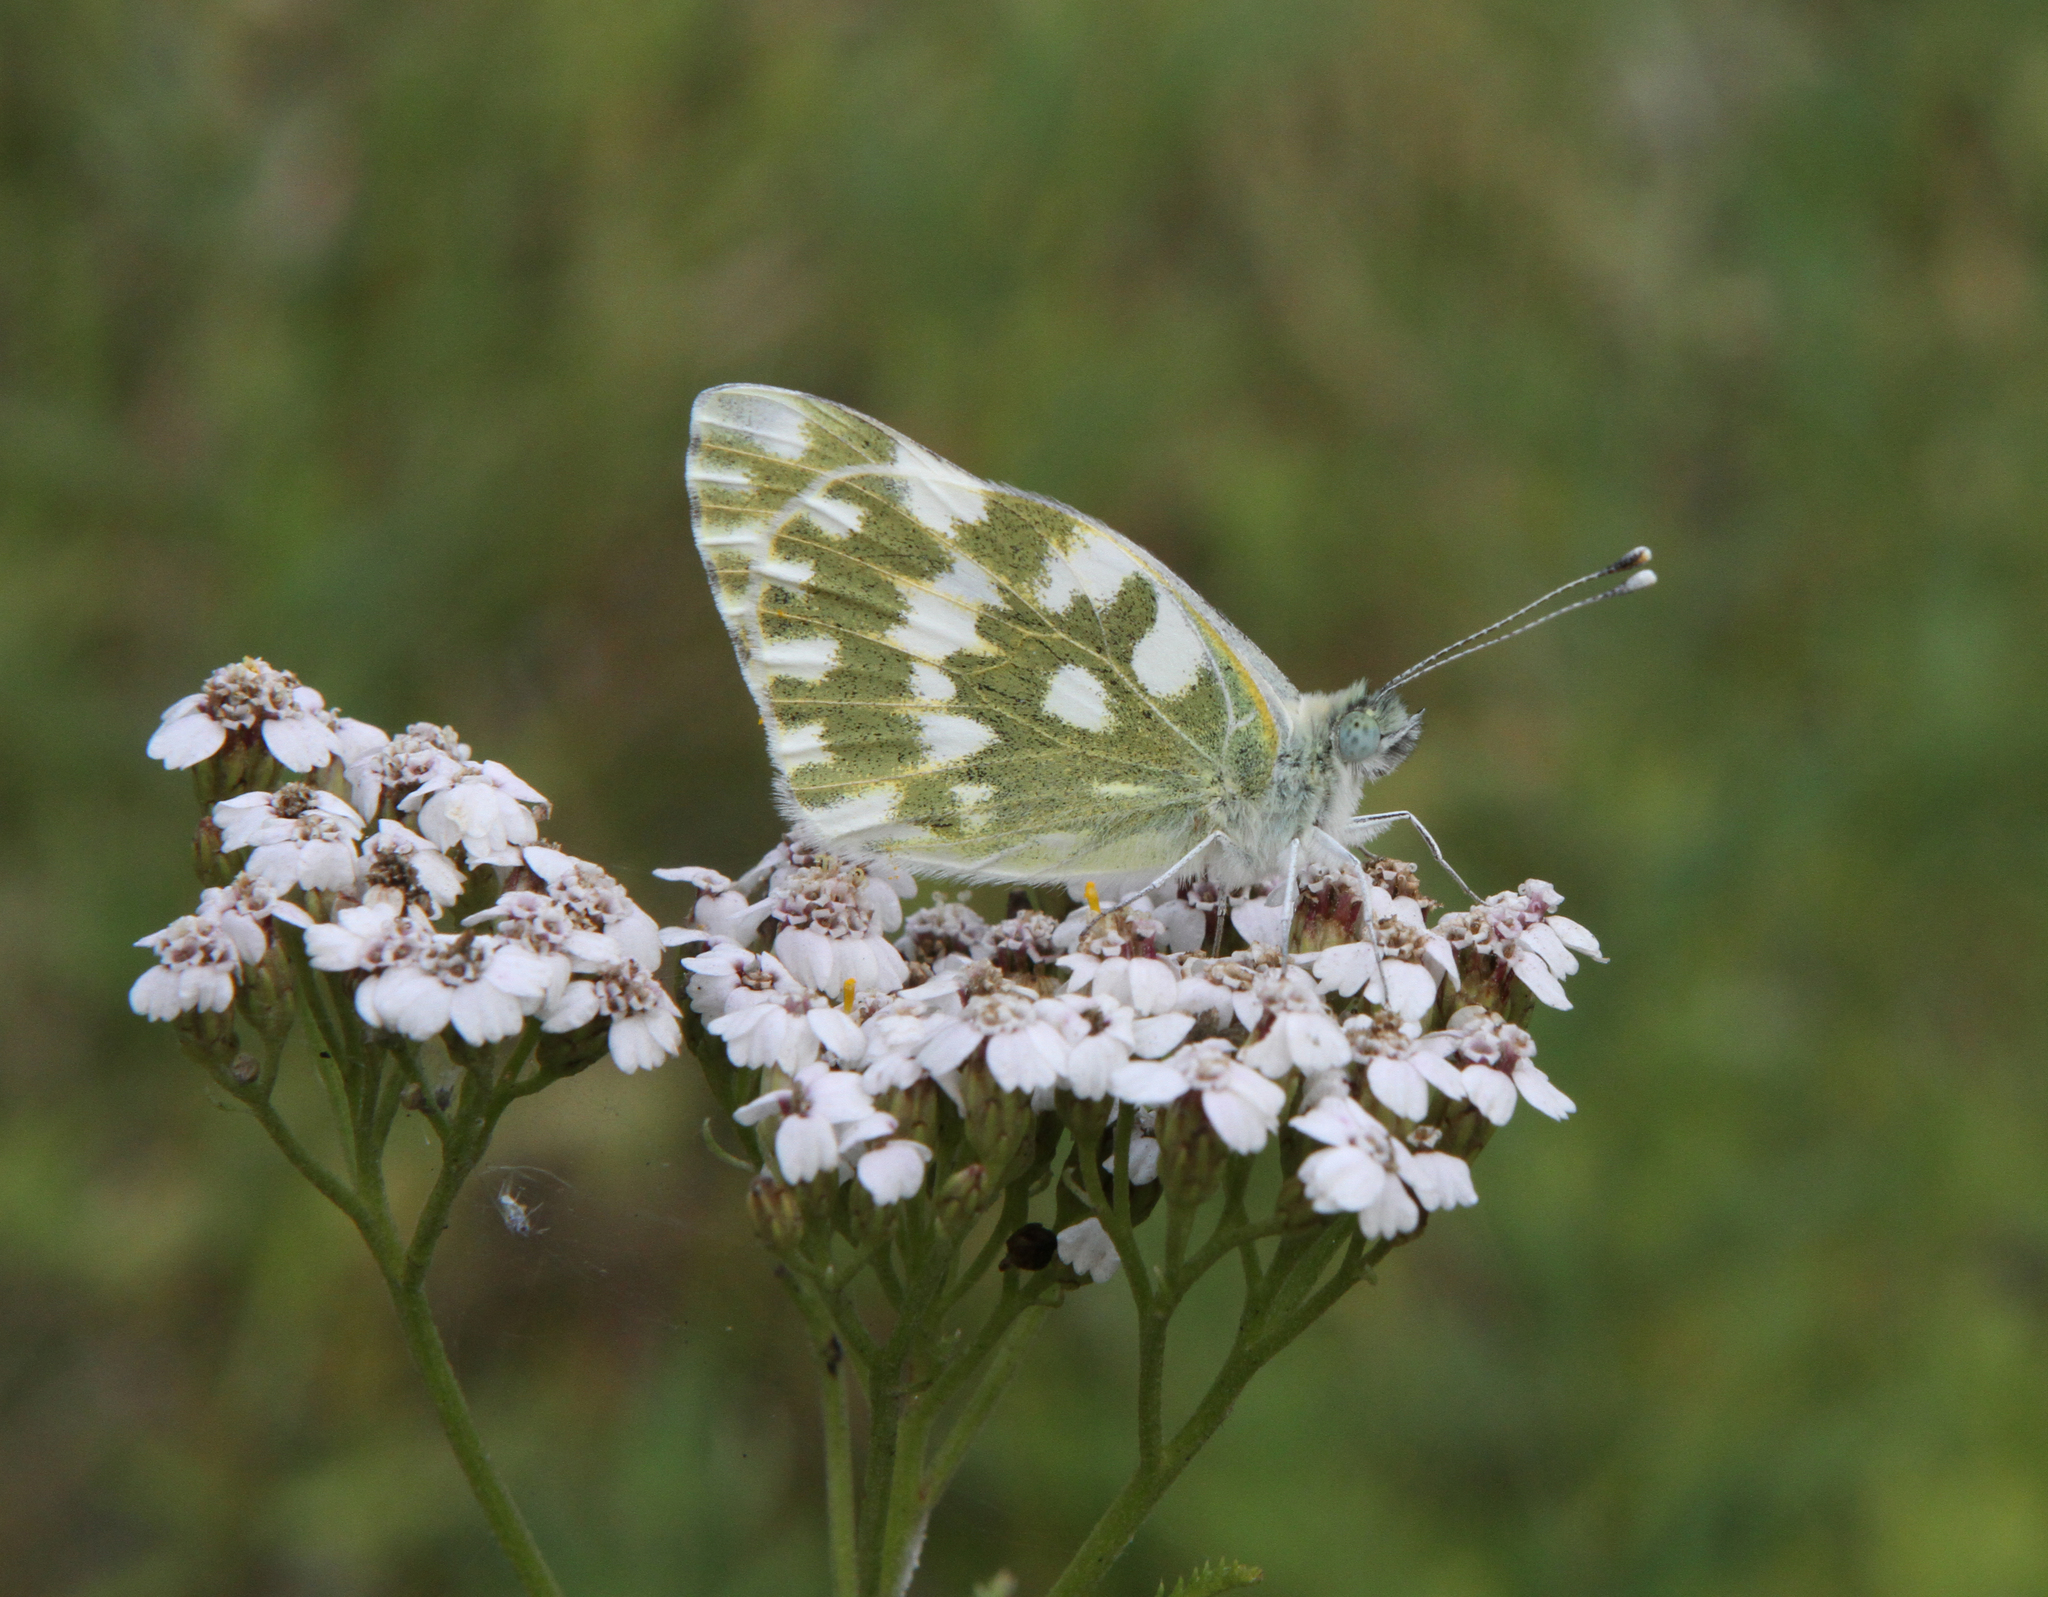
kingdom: Animalia
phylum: Arthropoda
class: Insecta
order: Lepidoptera
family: Pieridae
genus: Pontia
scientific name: Pontia edusa
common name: Eastern bath white
